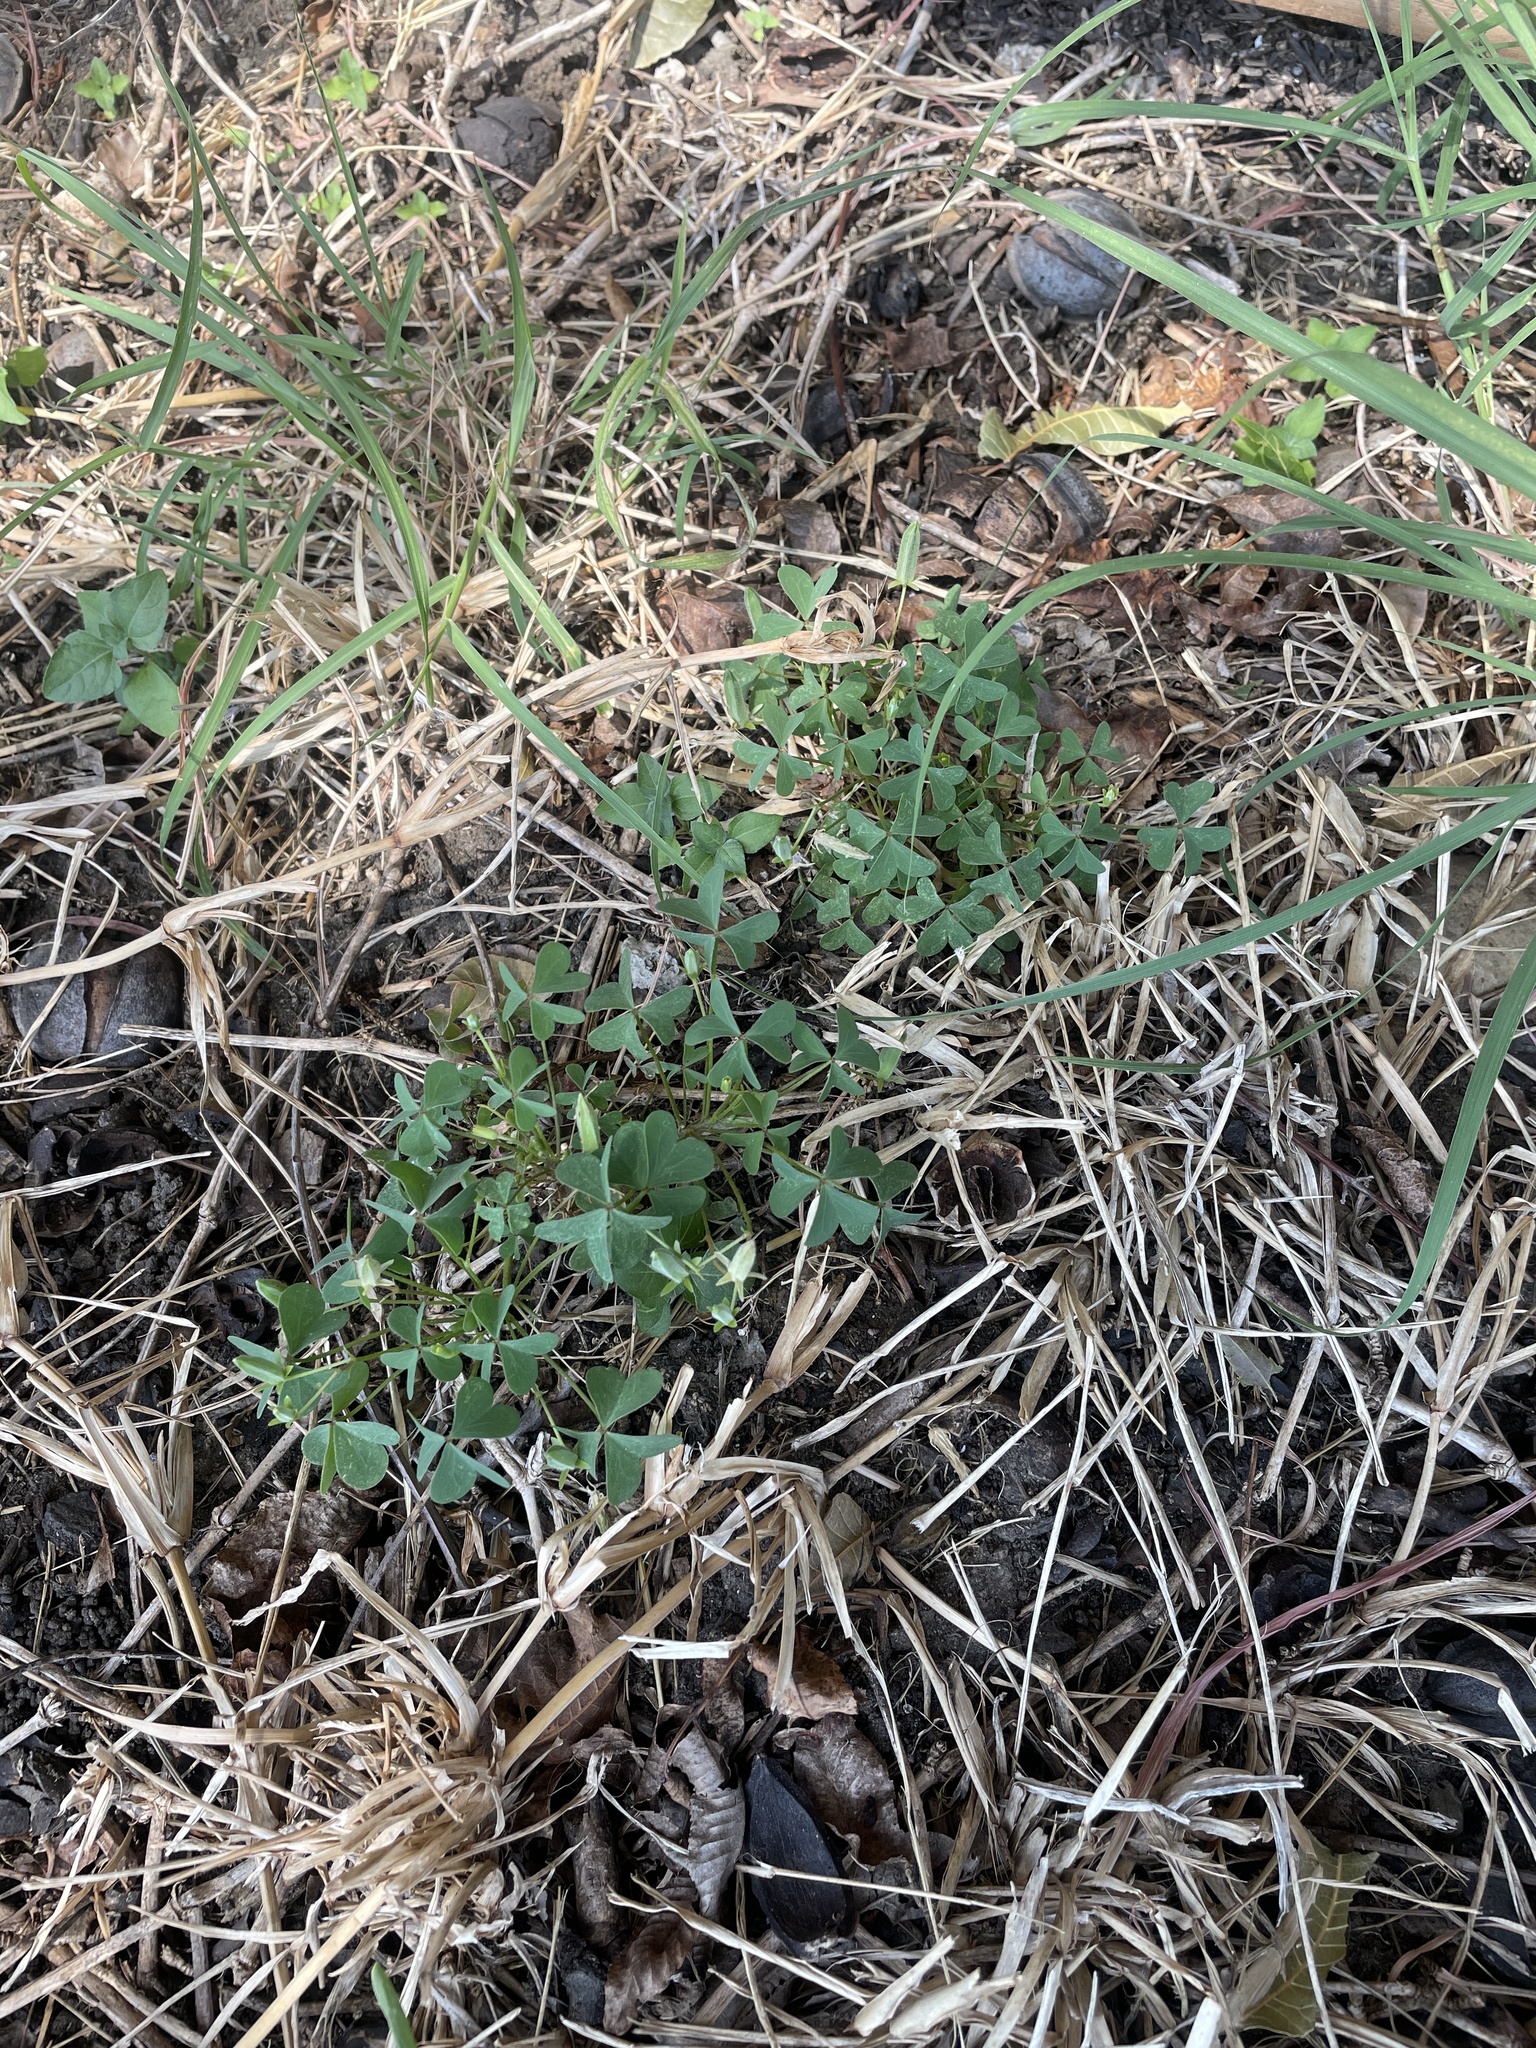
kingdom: Plantae
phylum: Tracheophyta
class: Magnoliopsida
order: Oxalidales
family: Oxalidaceae
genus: Oxalis
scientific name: Oxalis dillenii
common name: Sussex yellow-sorrel
